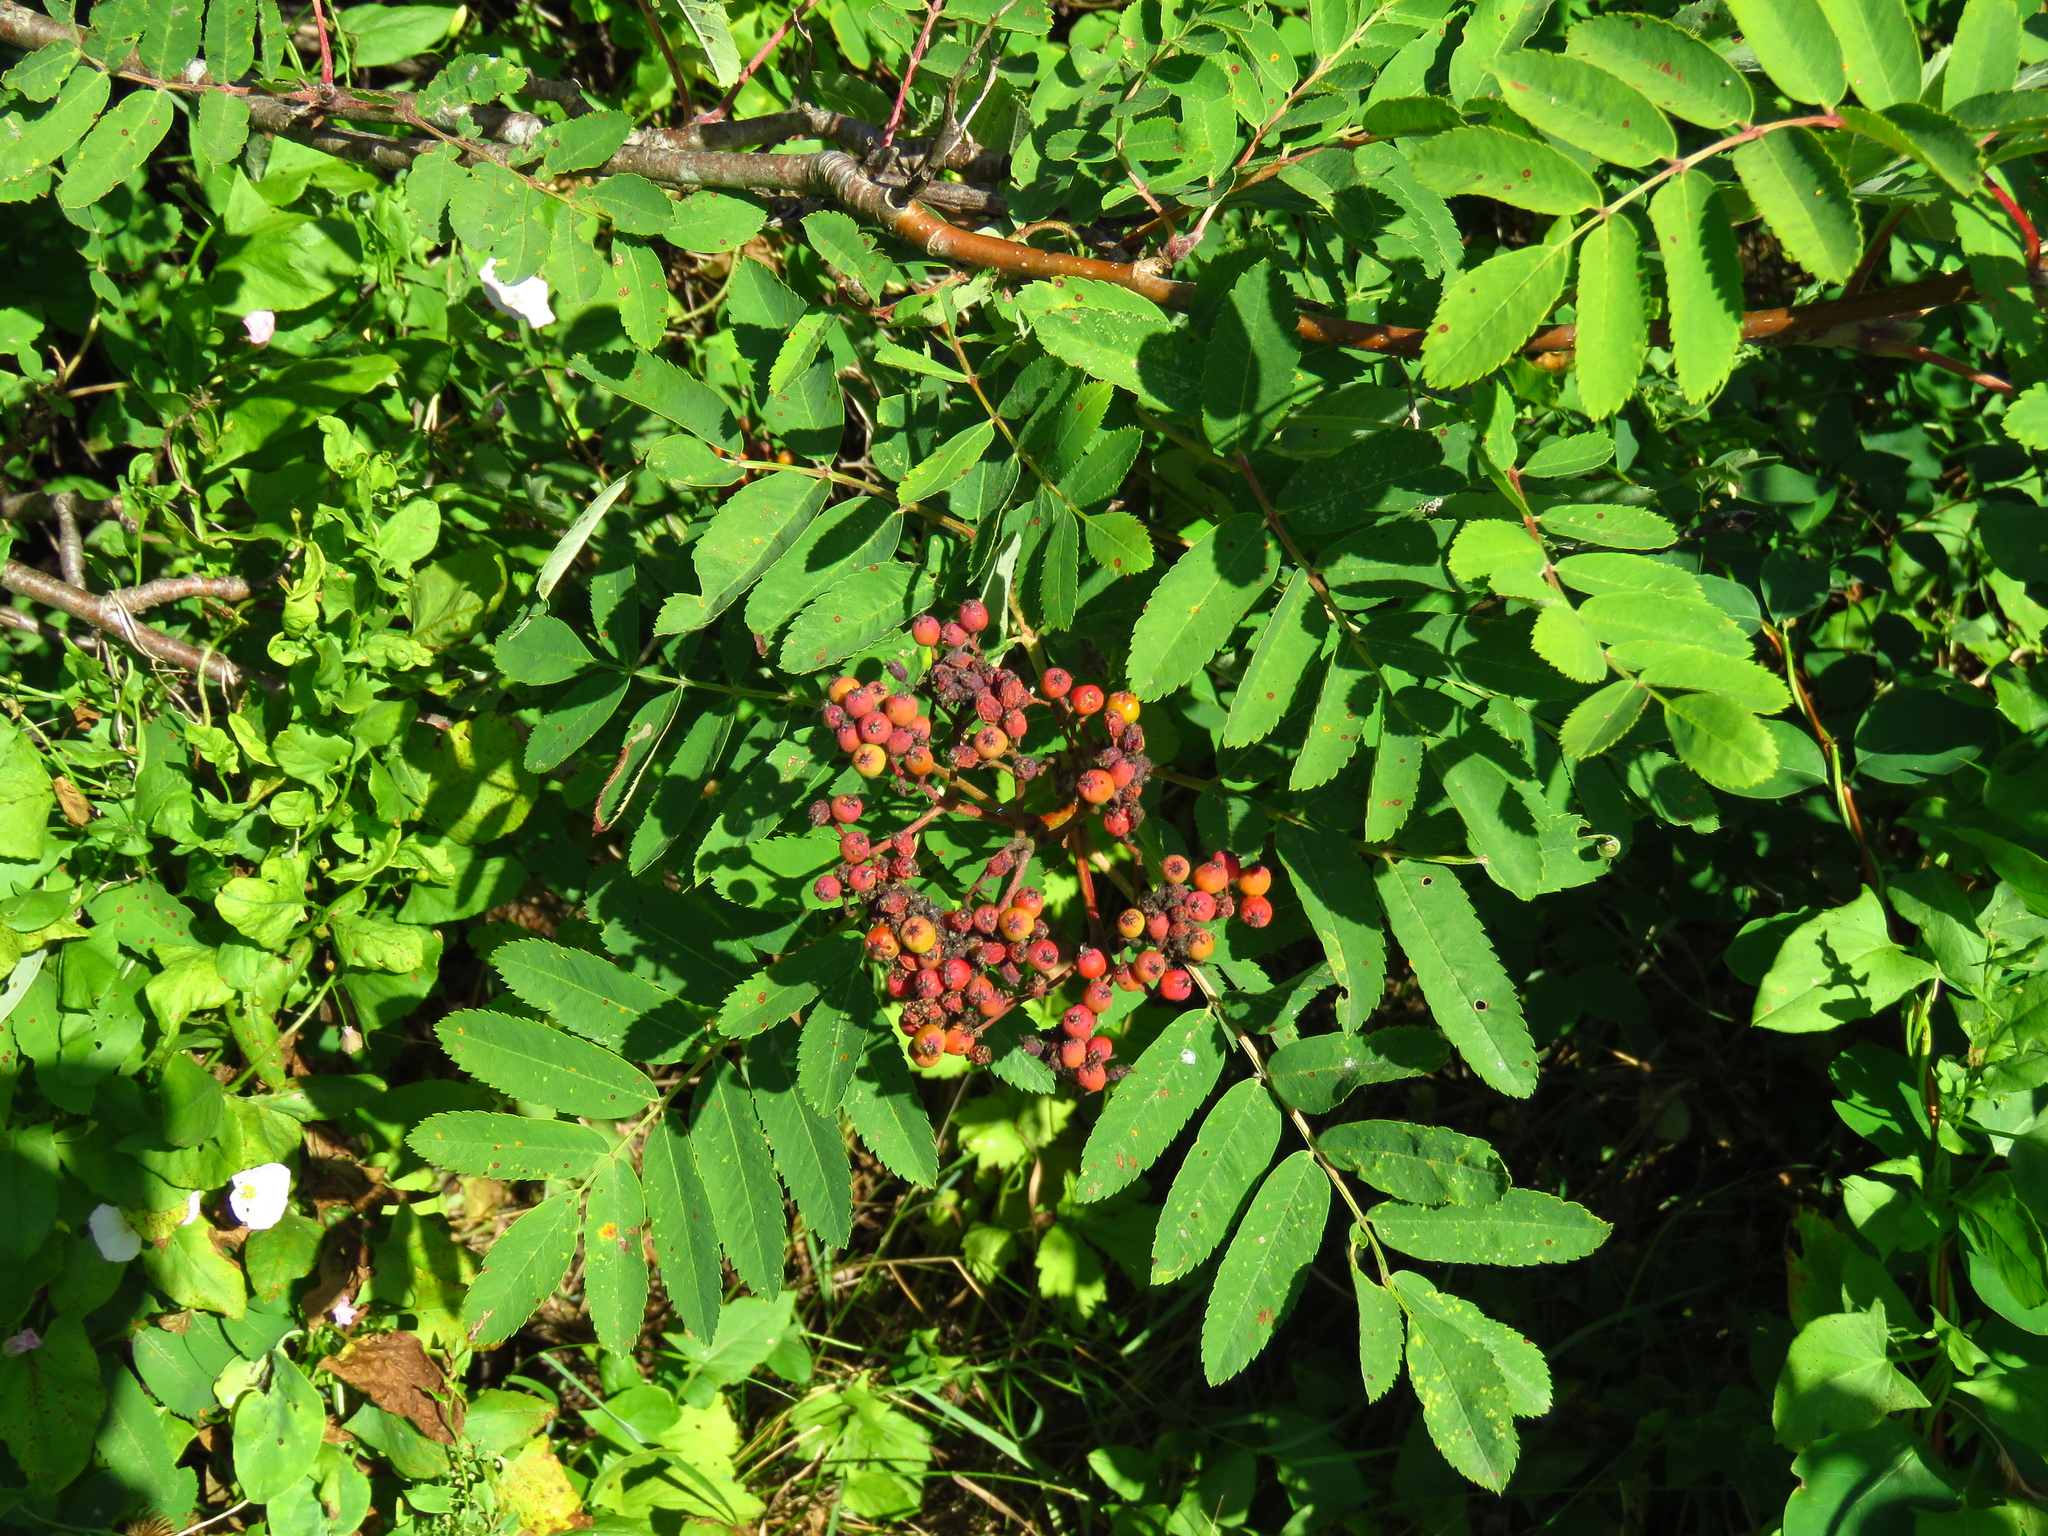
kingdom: Plantae
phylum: Tracheophyta
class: Magnoliopsida
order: Rosales
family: Rosaceae
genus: Sorbus
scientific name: Sorbus aucuparia
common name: Rowan
